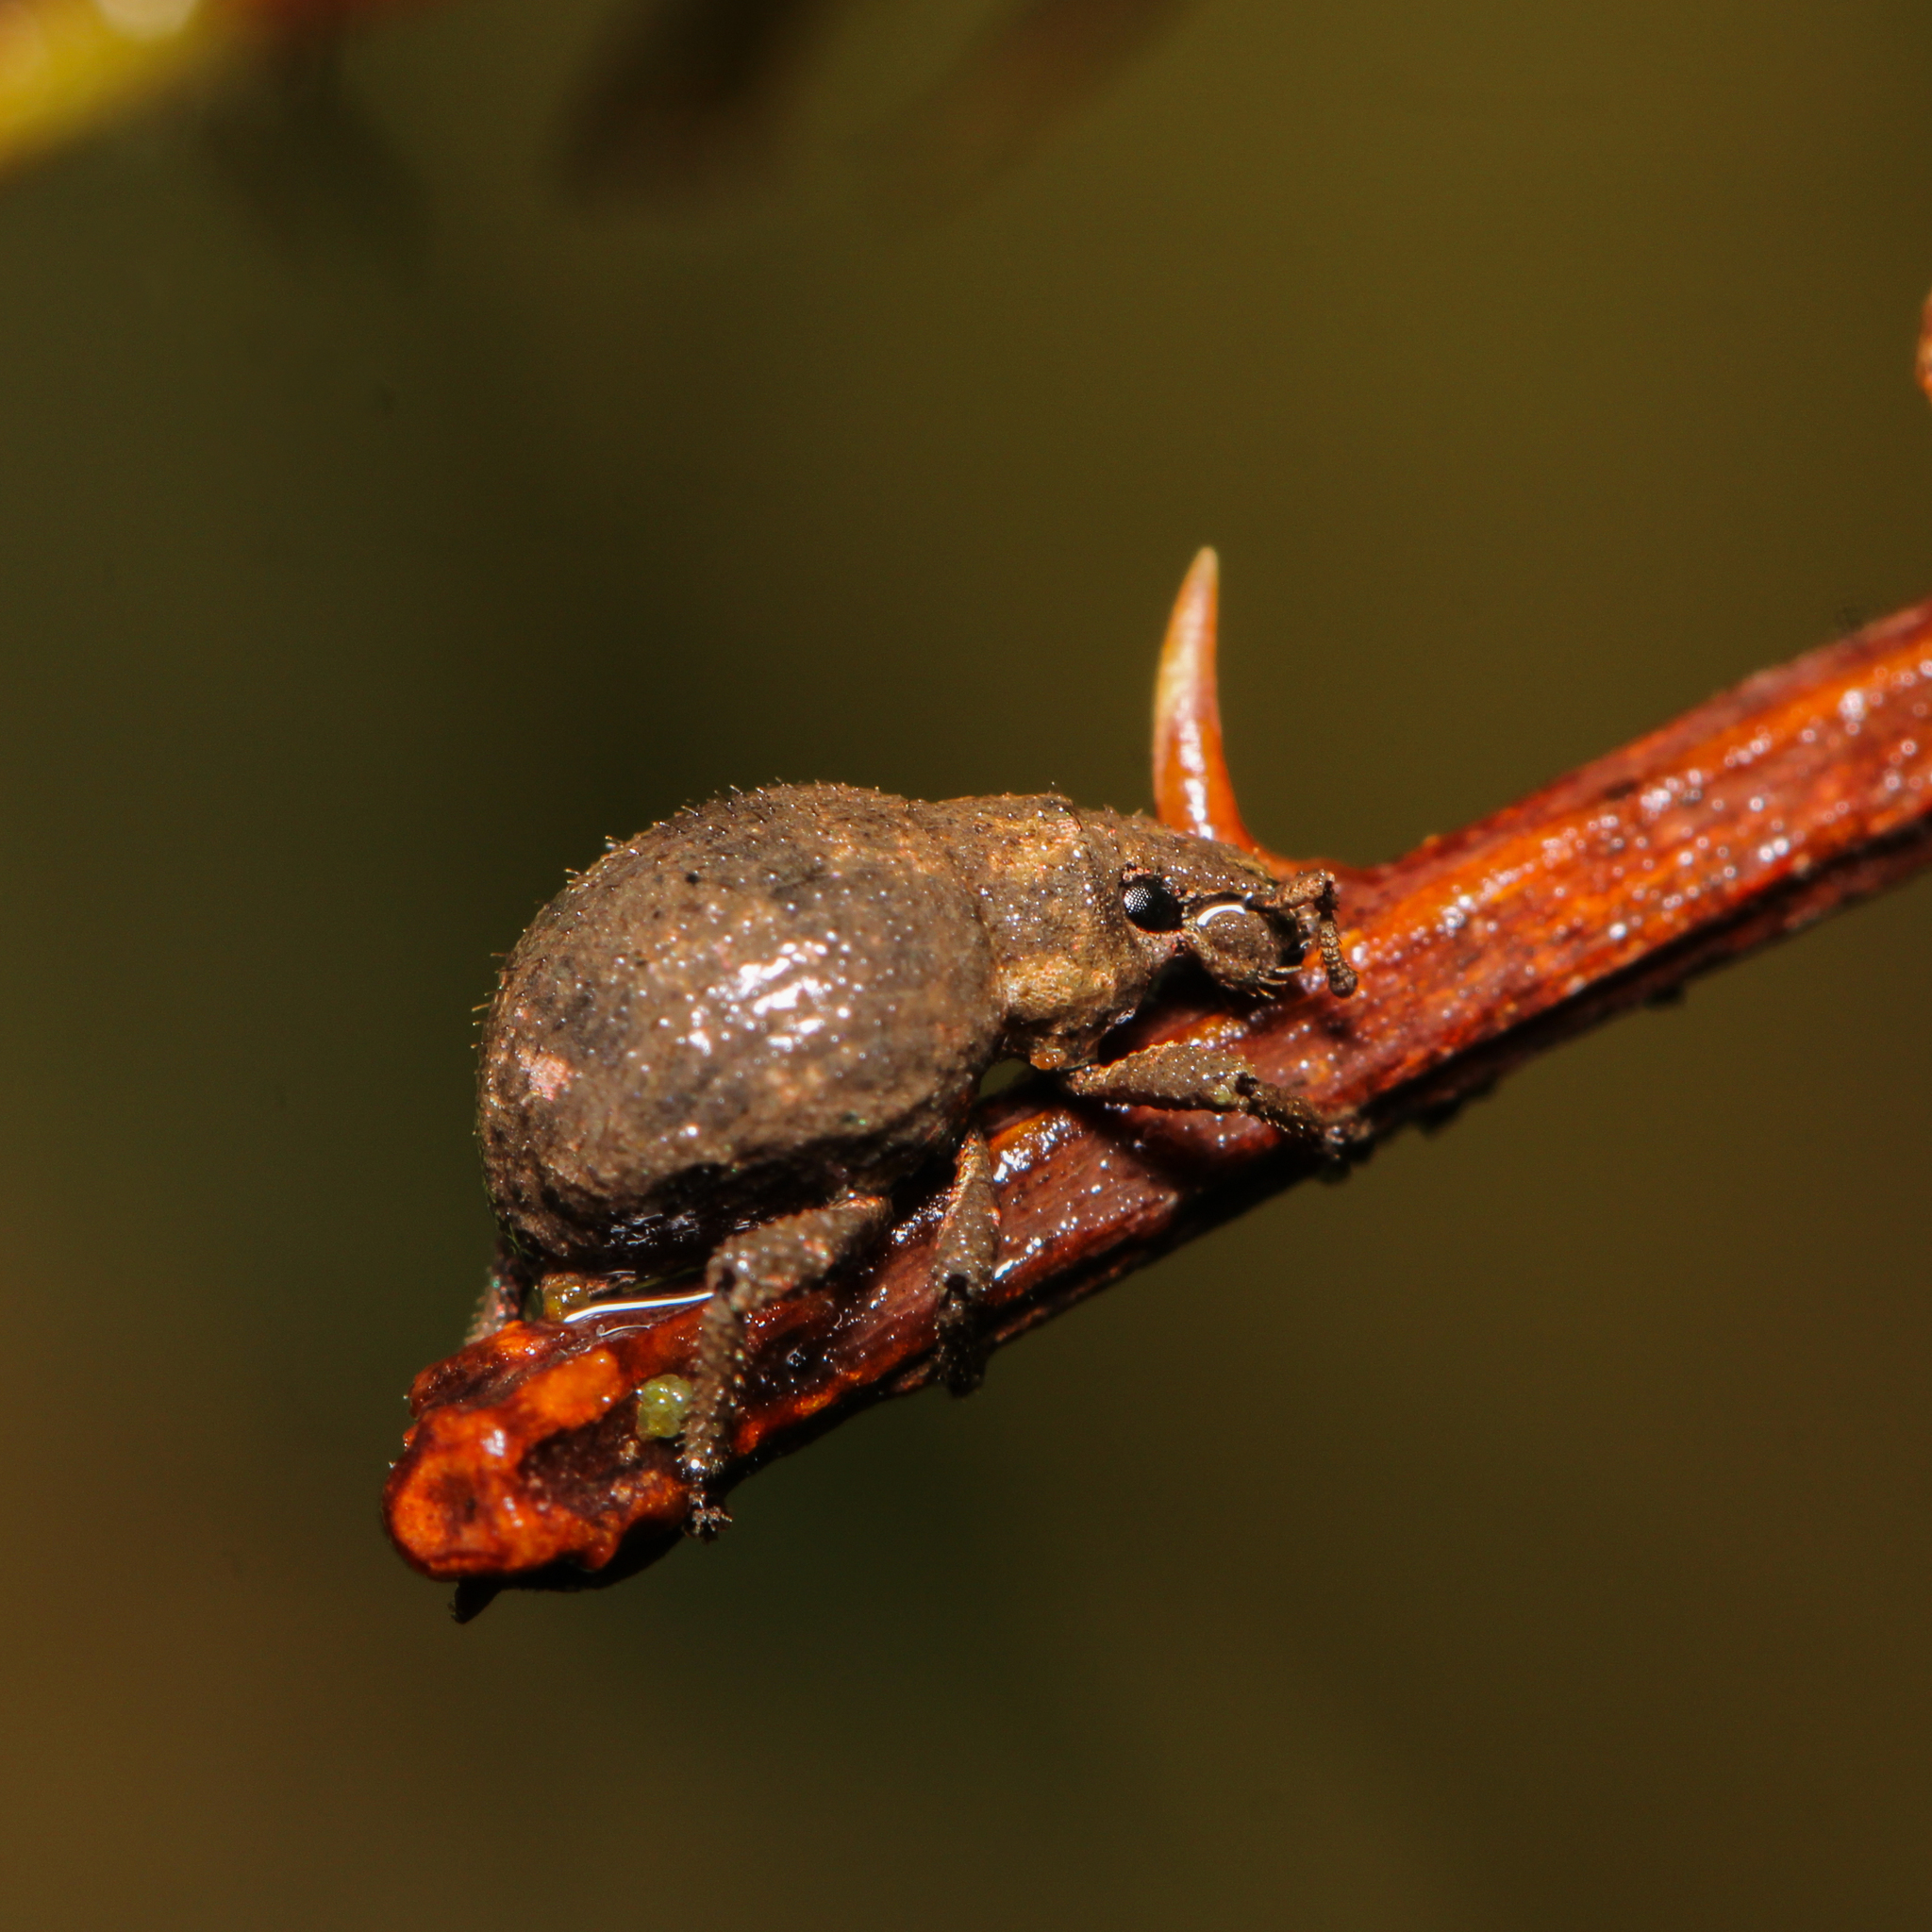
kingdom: Animalia
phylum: Arthropoda
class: Insecta
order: Coleoptera
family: Curculionidae
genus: Pseudocneorhinus
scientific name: Pseudocneorhinus bifasciatus
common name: Two-banded japanese weevil
